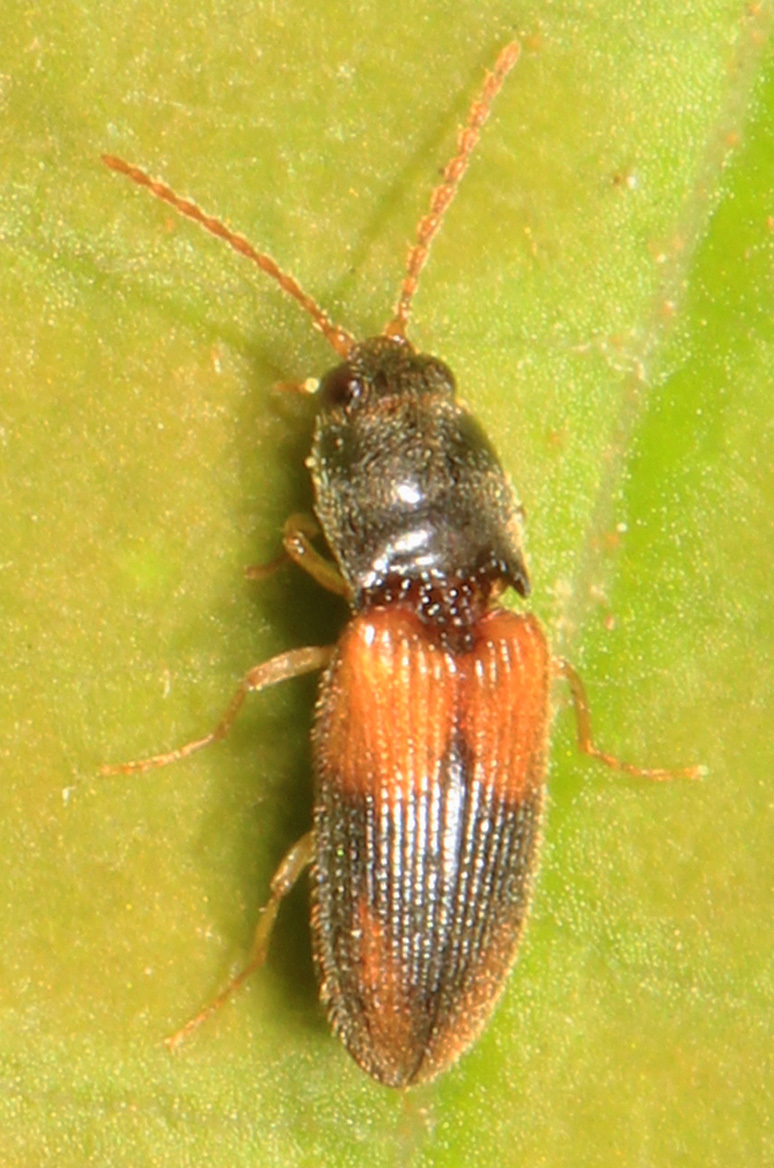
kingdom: Animalia
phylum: Arthropoda
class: Insecta
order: Coleoptera
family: Elateridae
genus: Horistonotus
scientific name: Horistonotus curiatus
